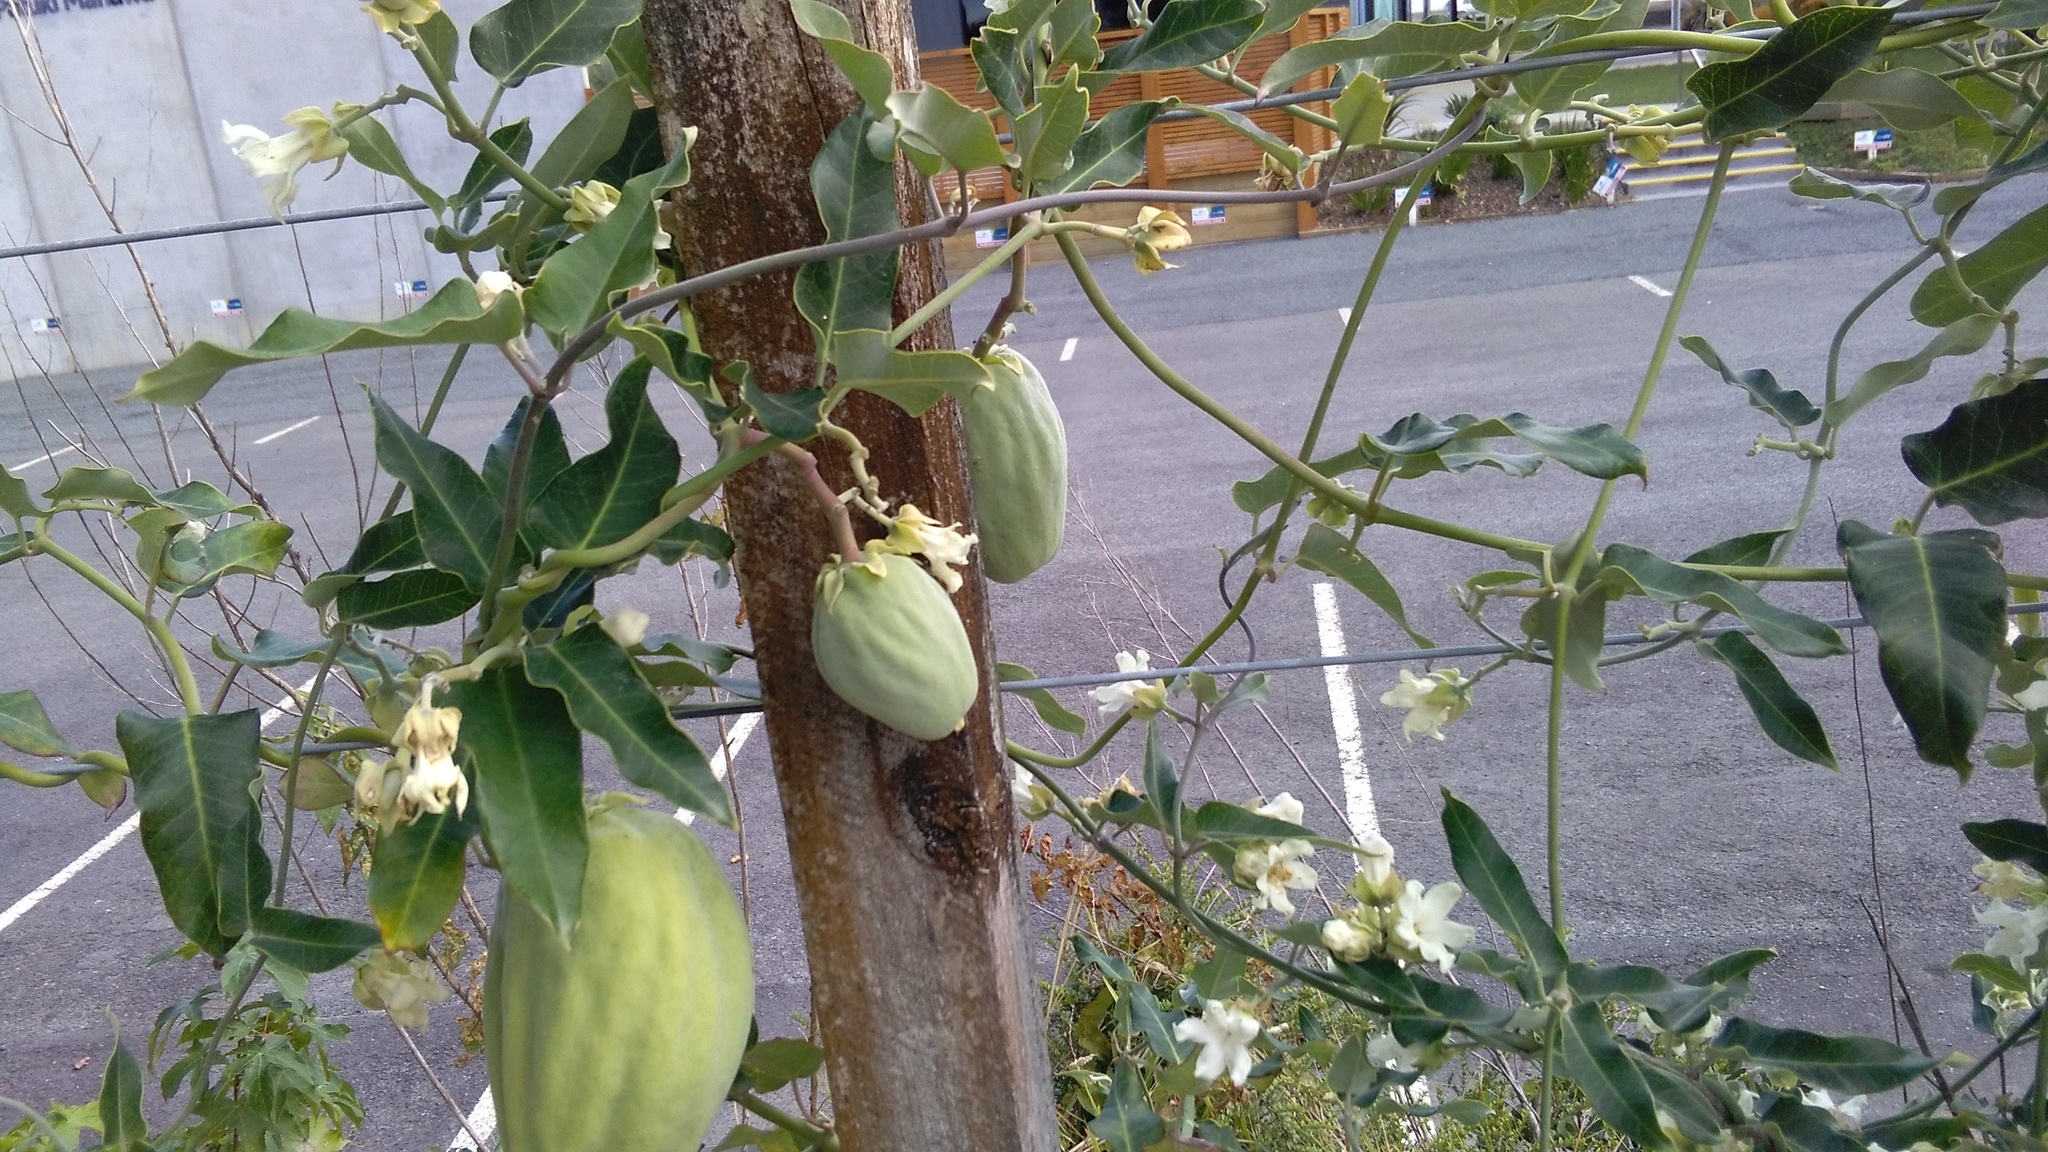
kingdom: Plantae
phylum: Tracheophyta
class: Magnoliopsida
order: Gentianales
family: Apocynaceae
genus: Araujia
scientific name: Araujia sericifera
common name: White bladderflower
